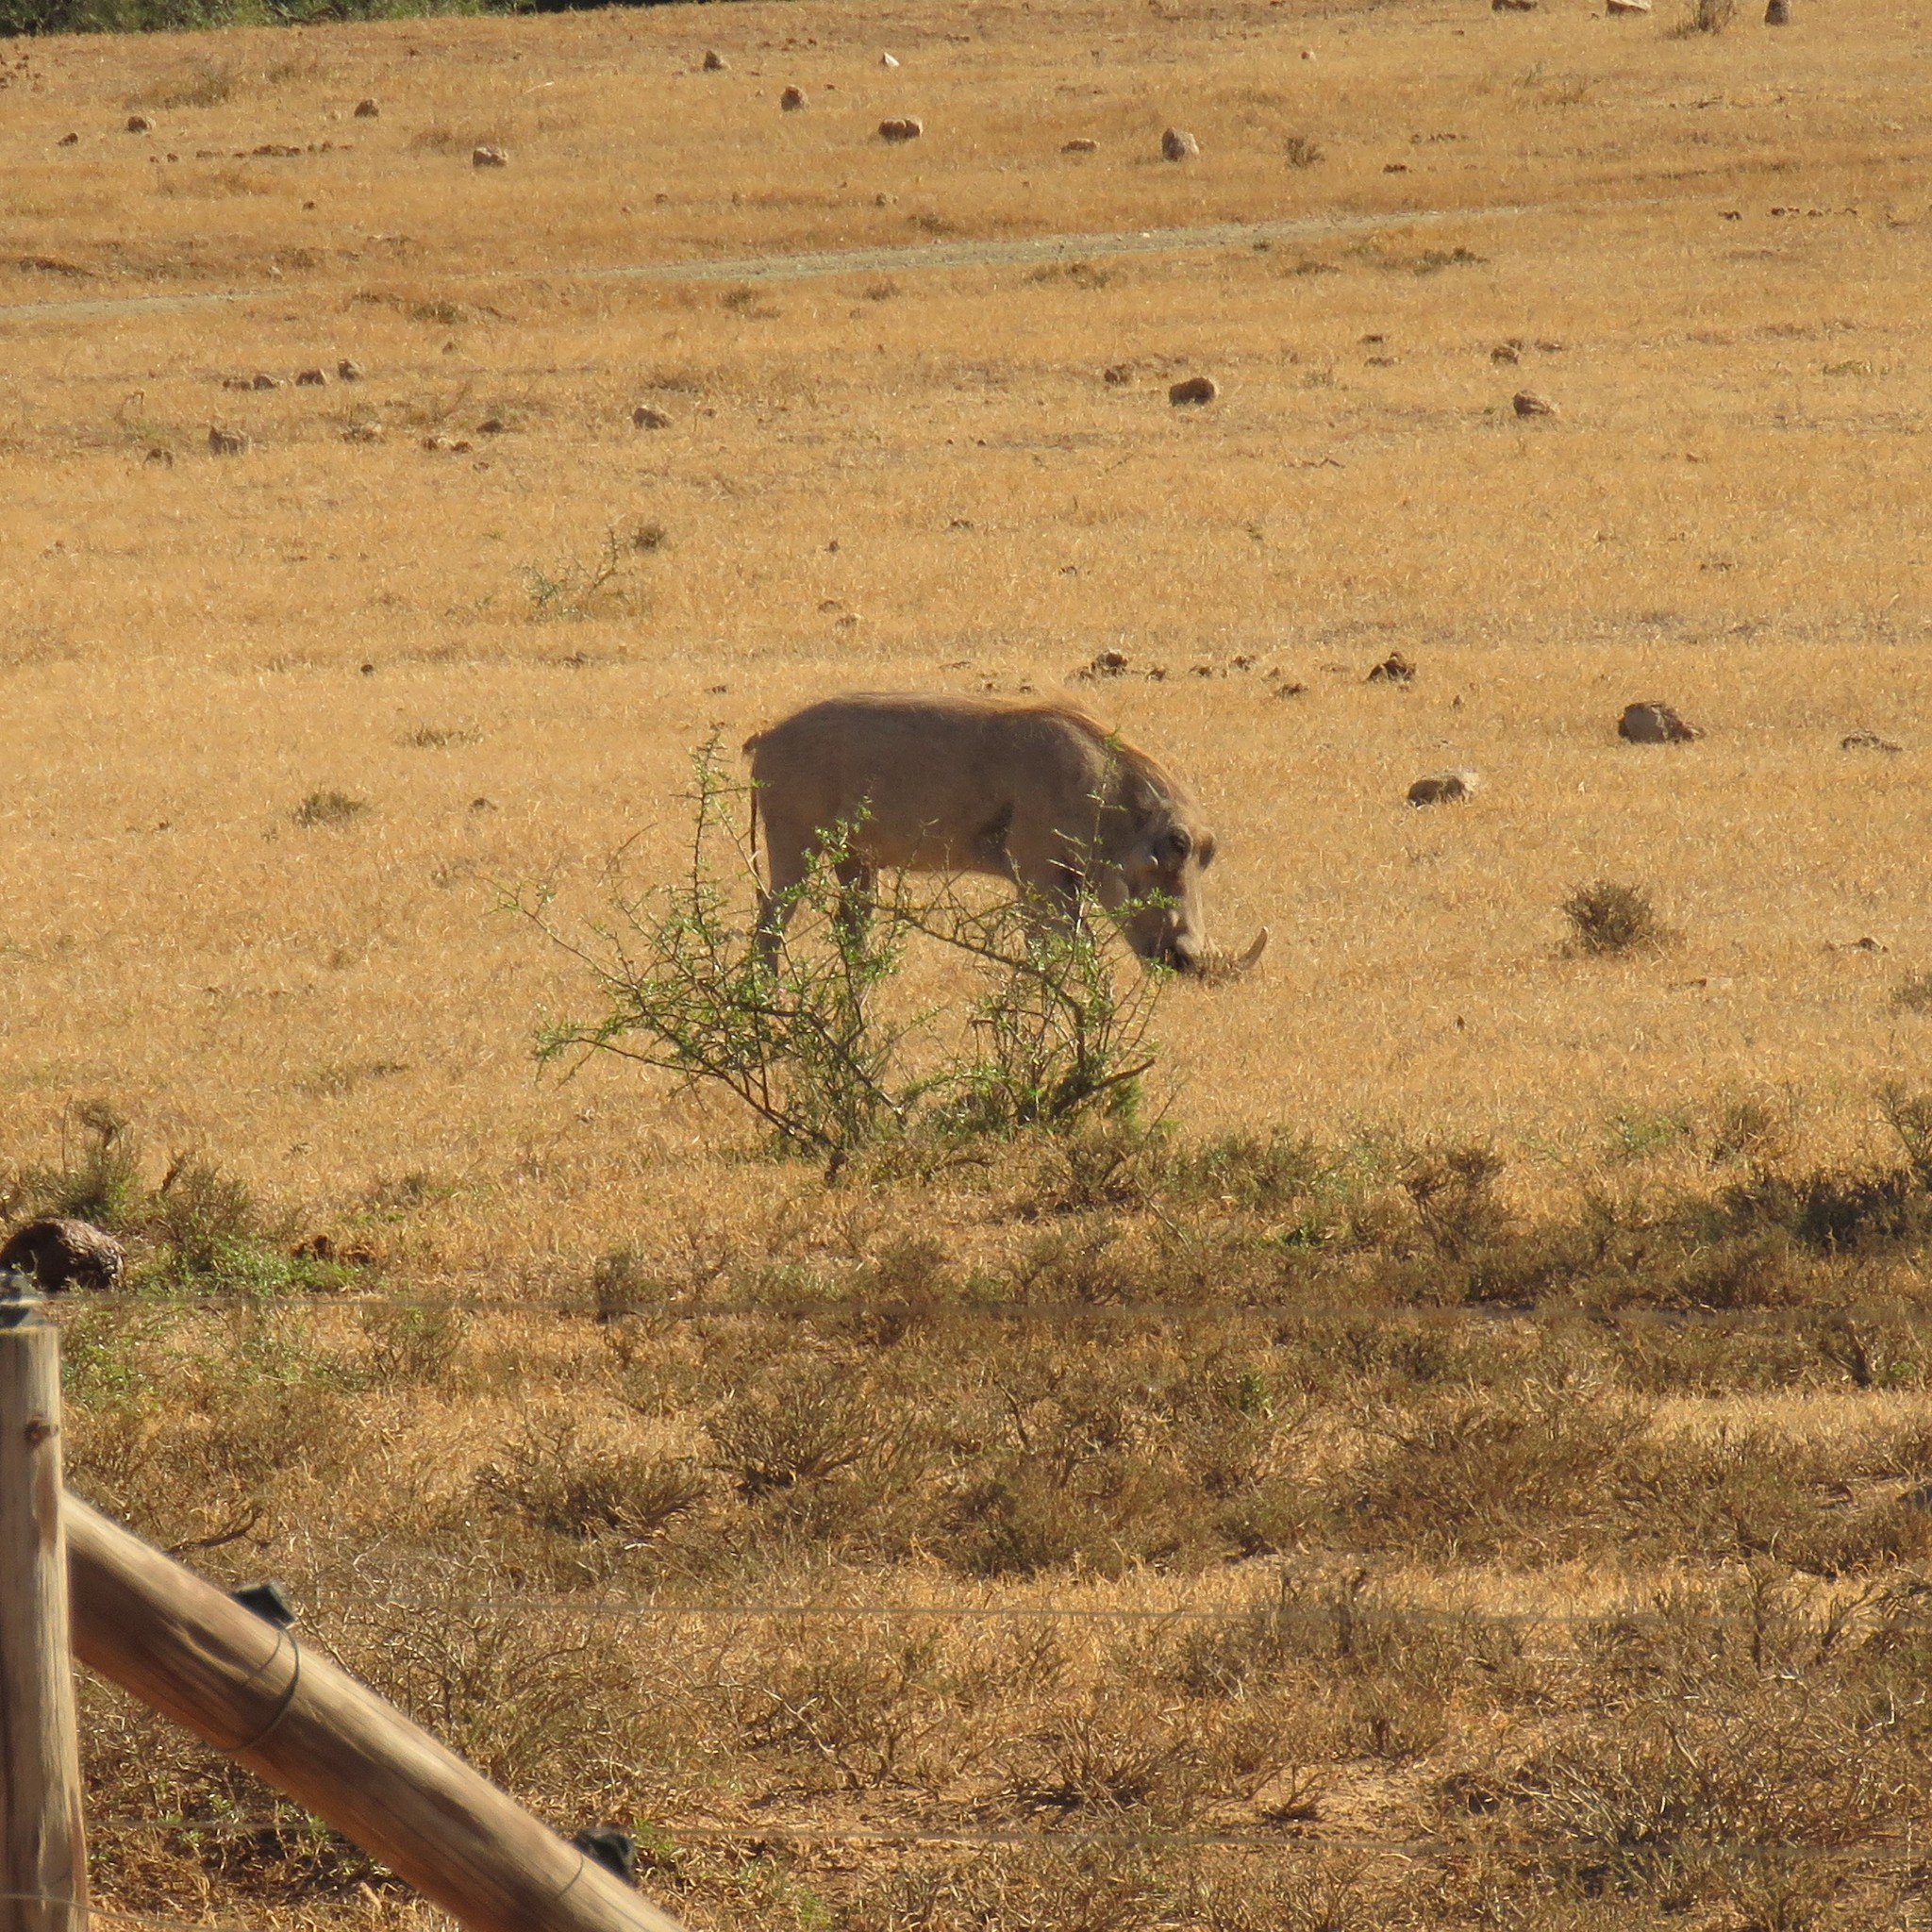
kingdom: Animalia
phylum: Chordata
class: Mammalia
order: Artiodactyla
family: Suidae
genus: Phacochoerus
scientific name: Phacochoerus africanus
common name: Common warthog
